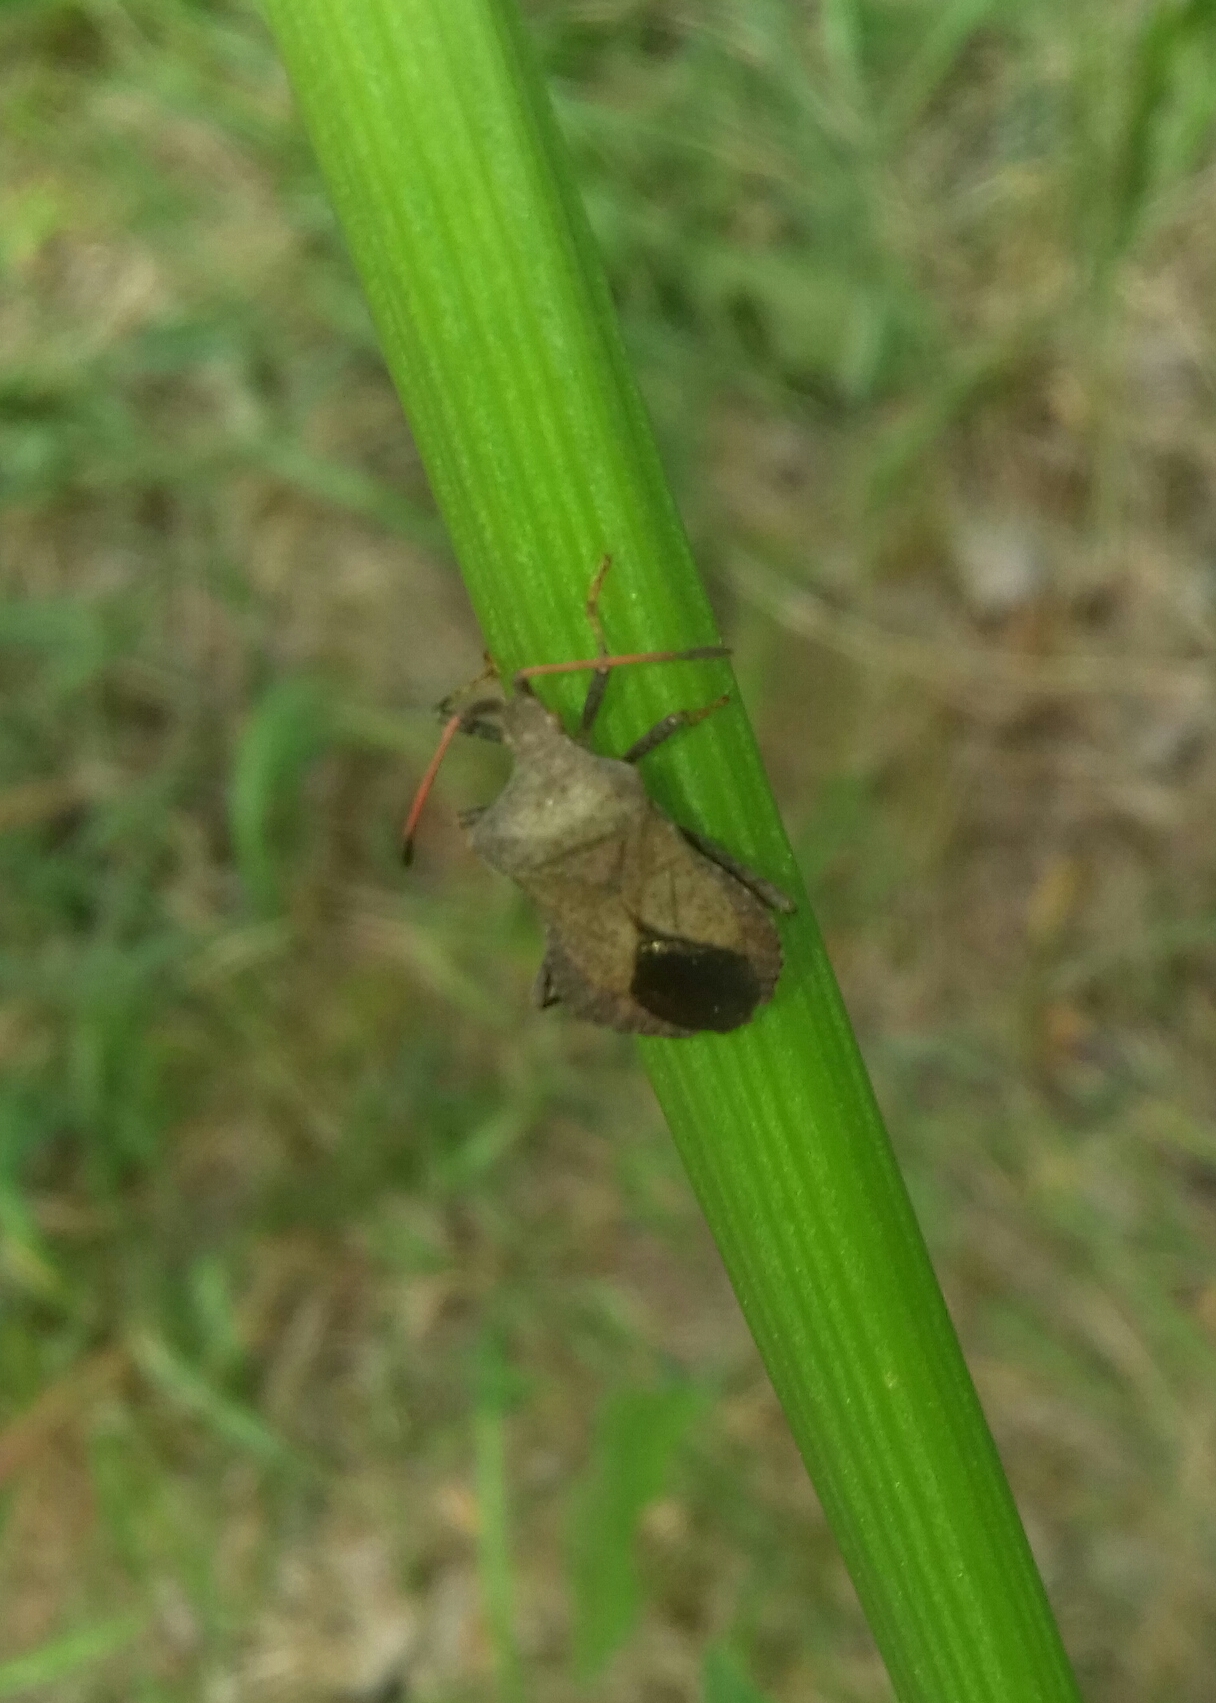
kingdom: Animalia
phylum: Arthropoda
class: Insecta
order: Hemiptera
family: Coreidae
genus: Coreus
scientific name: Coreus marginatus
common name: Dock bug
